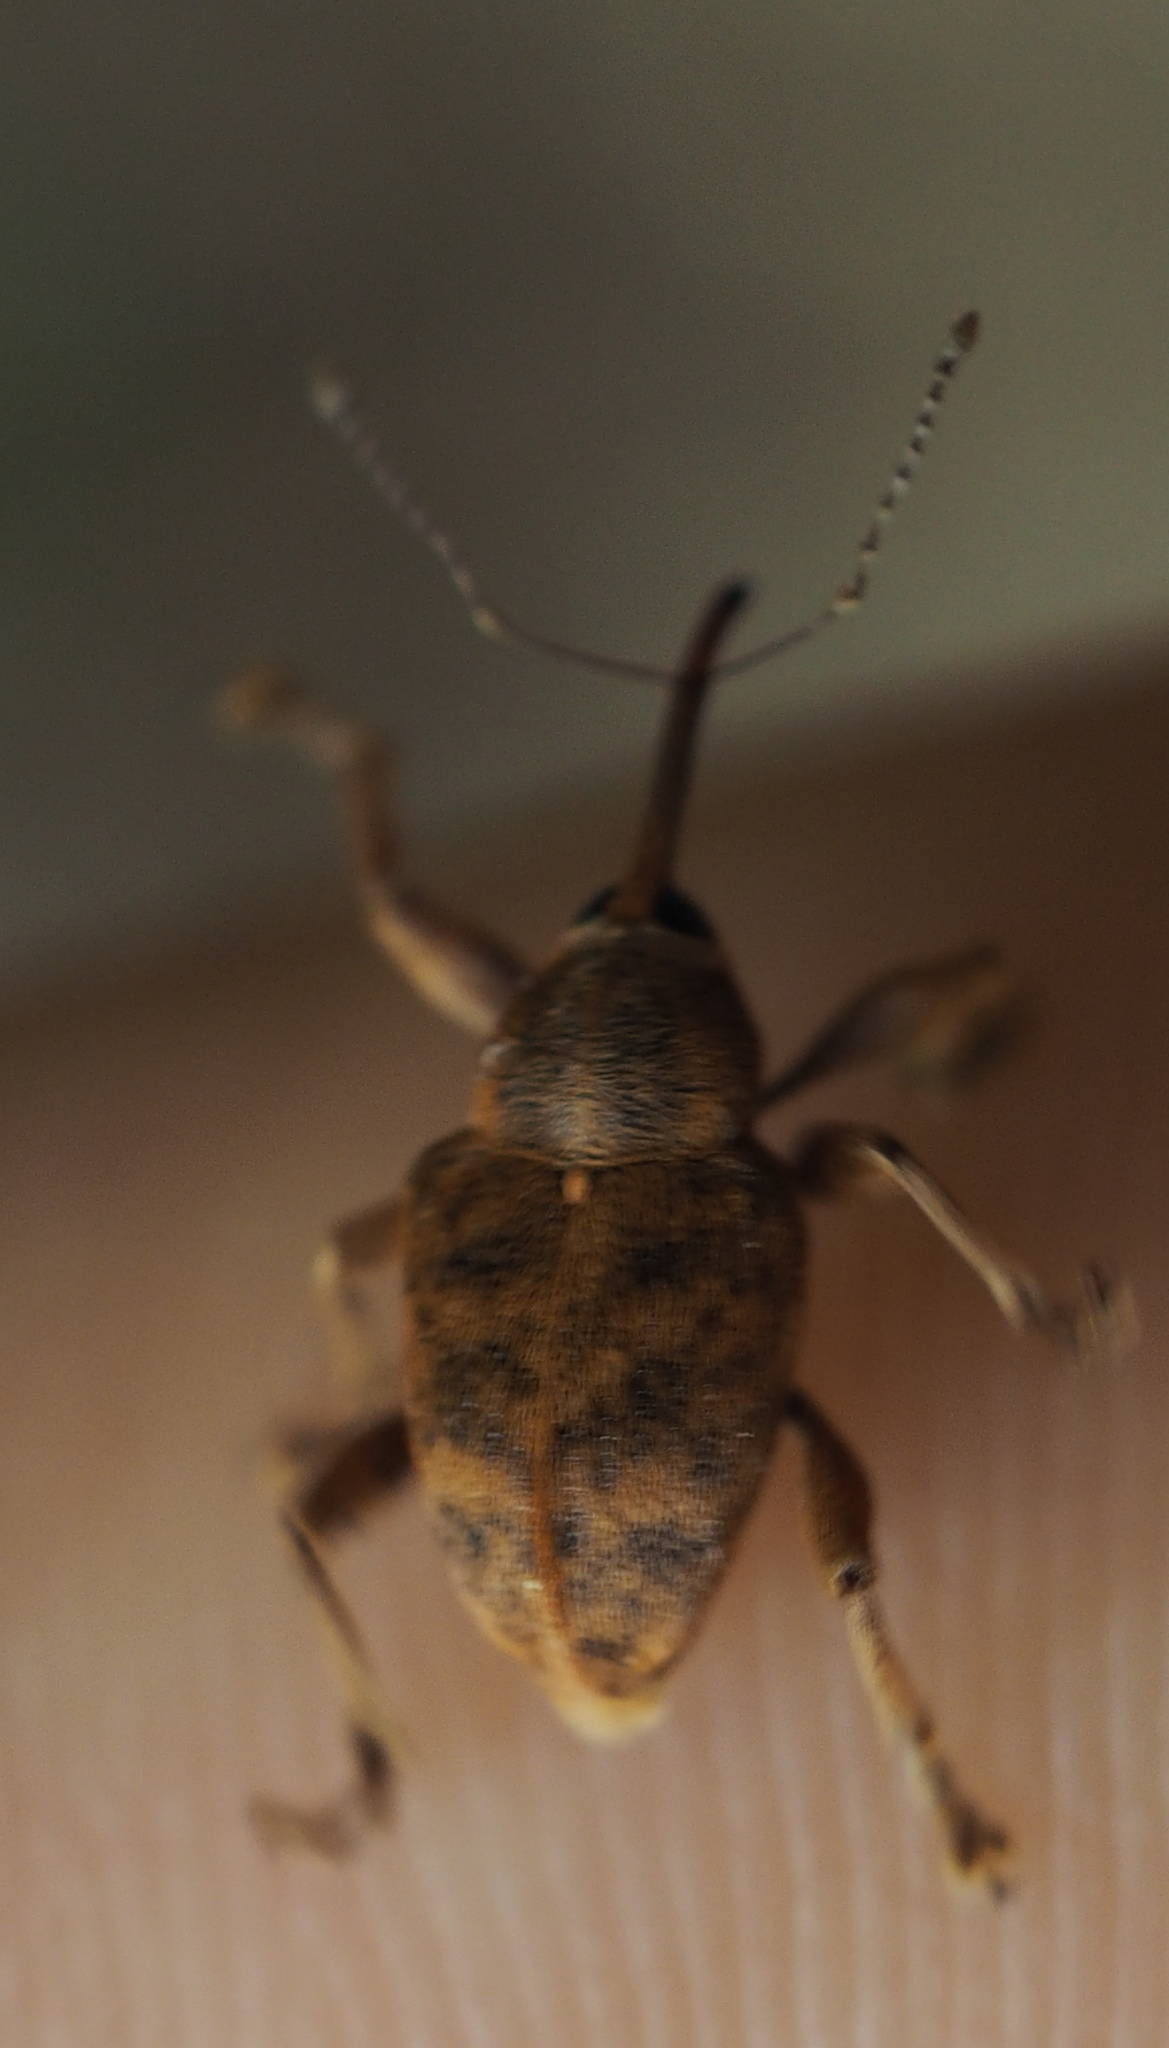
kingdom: Animalia
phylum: Arthropoda
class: Insecta
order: Coleoptera
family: Curculionidae
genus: Curculio
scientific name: Curculio nucum
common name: Nut weevil
